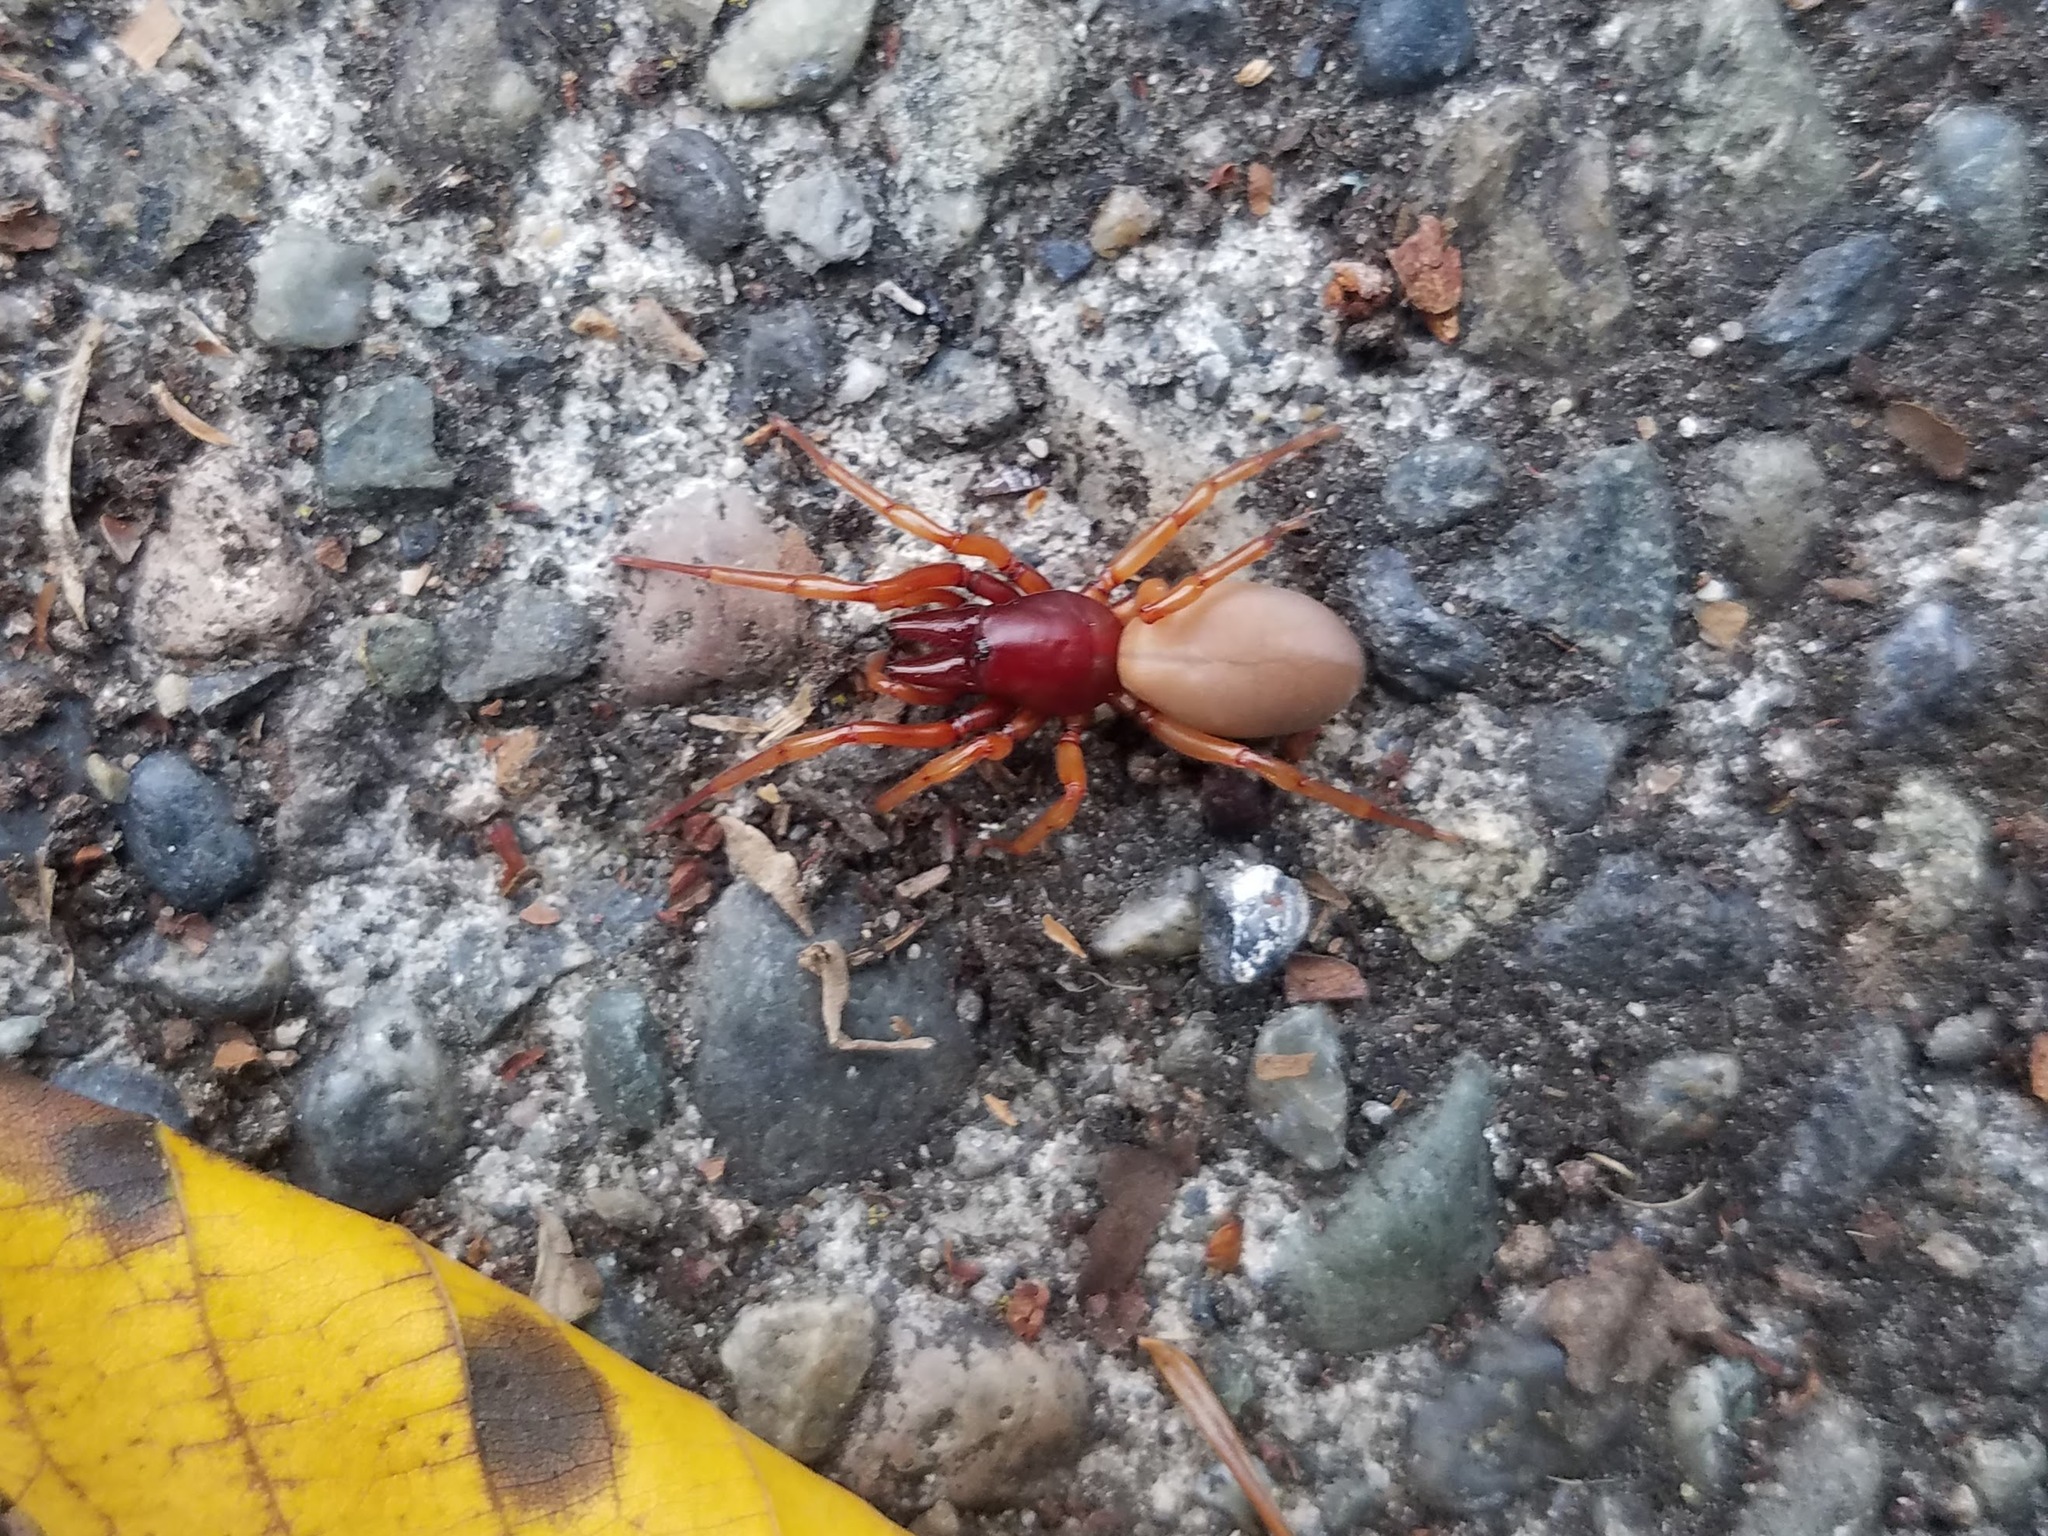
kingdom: Animalia
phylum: Arthropoda
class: Arachnida
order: Araneae
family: Dysderidae
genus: Dysdera
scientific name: Dysdera crocata
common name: Woodlouse spider
